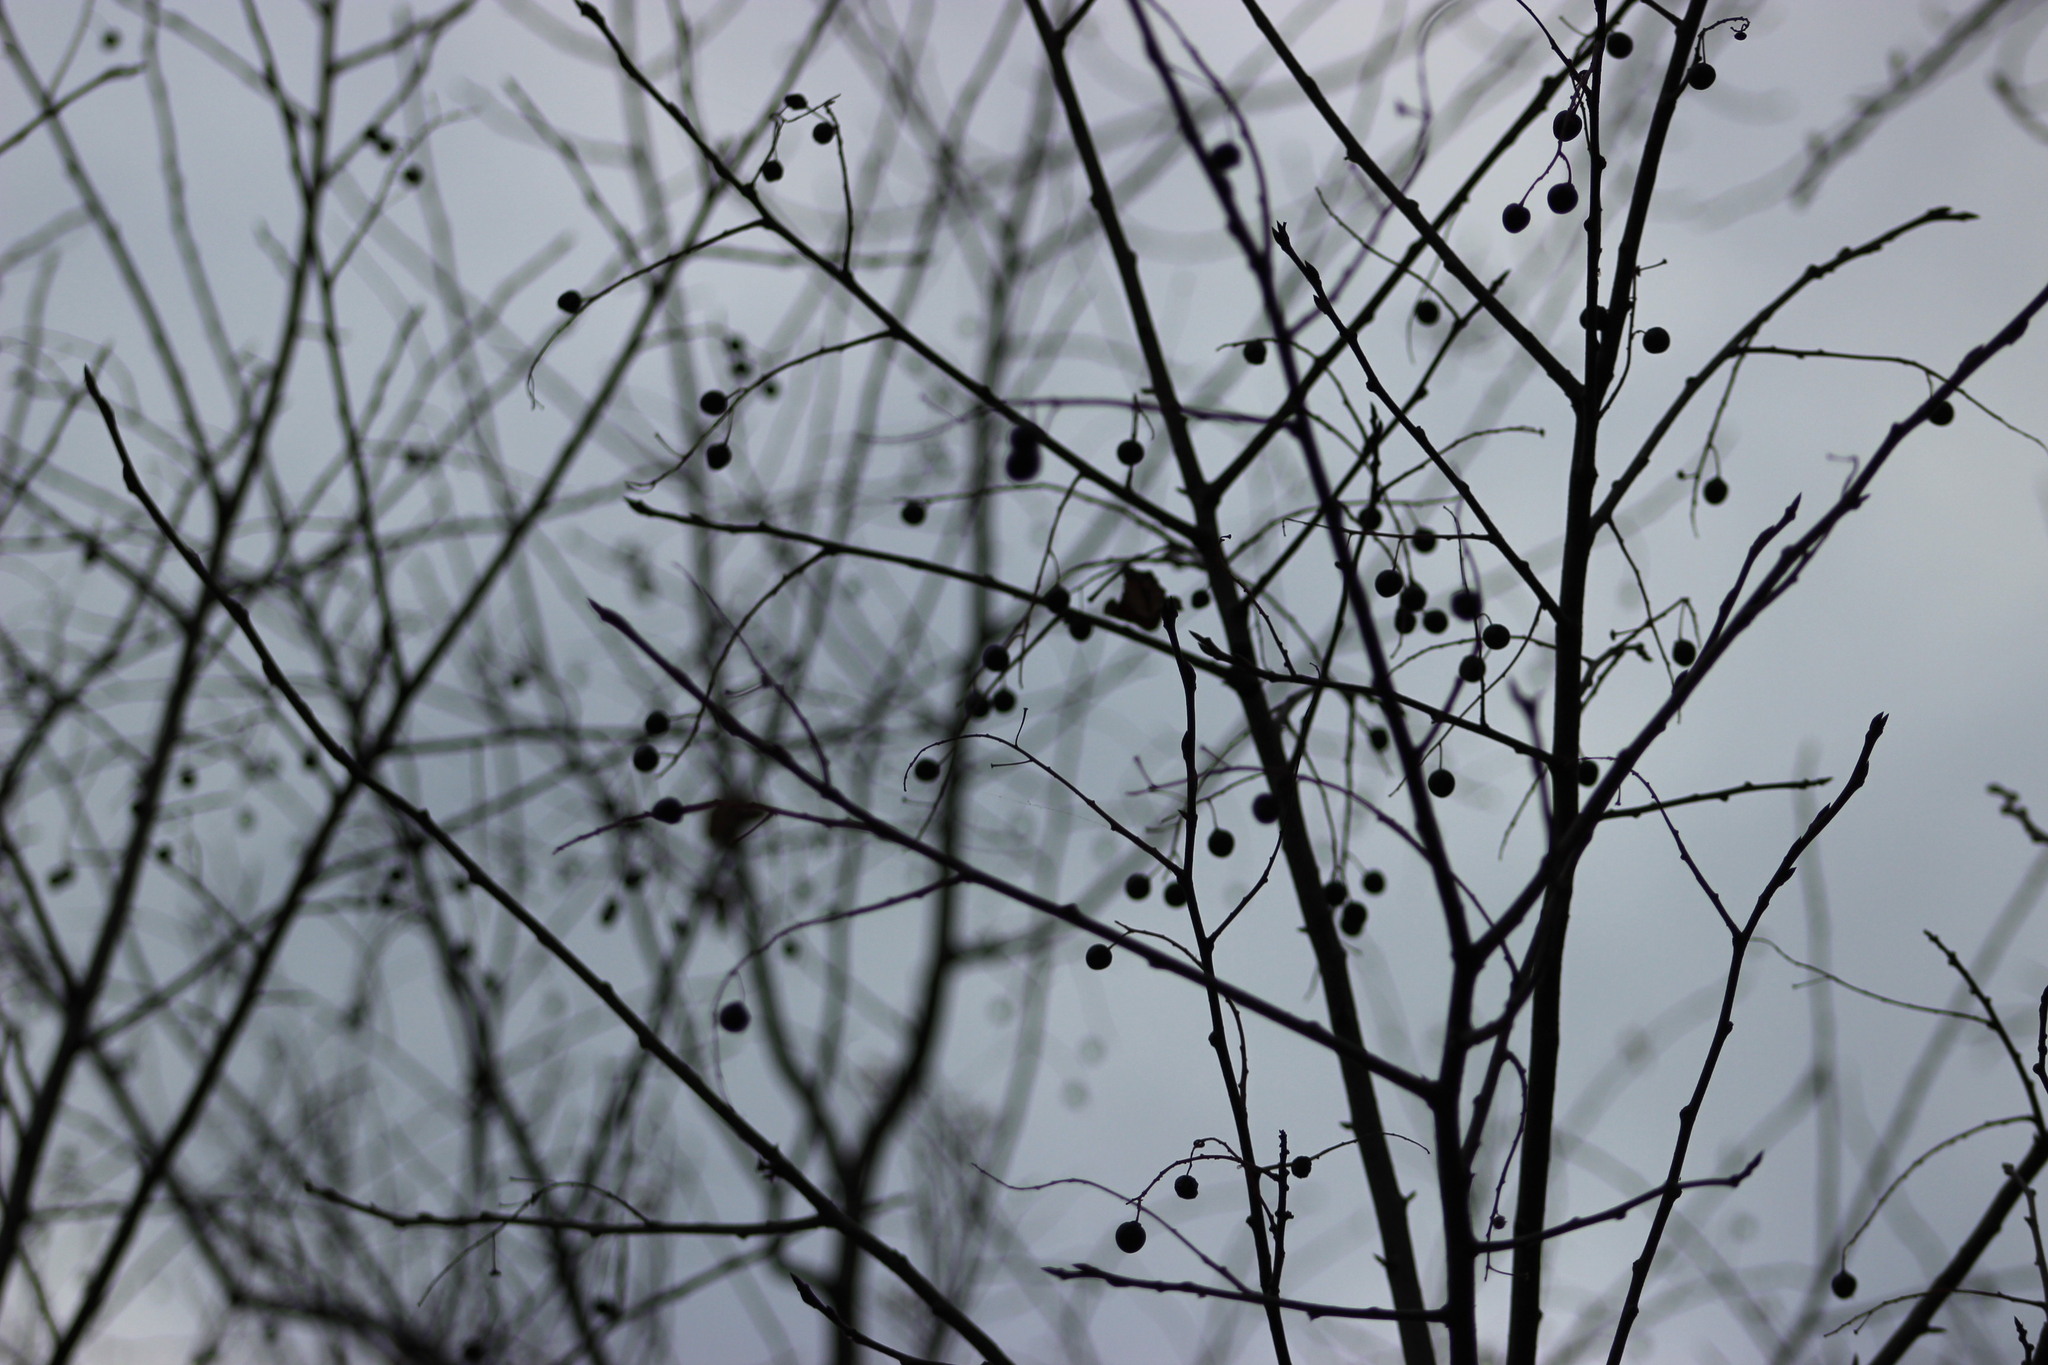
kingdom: Plantae
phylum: Tracheophyta
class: Magnoliopsida
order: Rosales
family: Rosaceae
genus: Prunus
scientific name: Prunus padus
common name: Bird cherry
